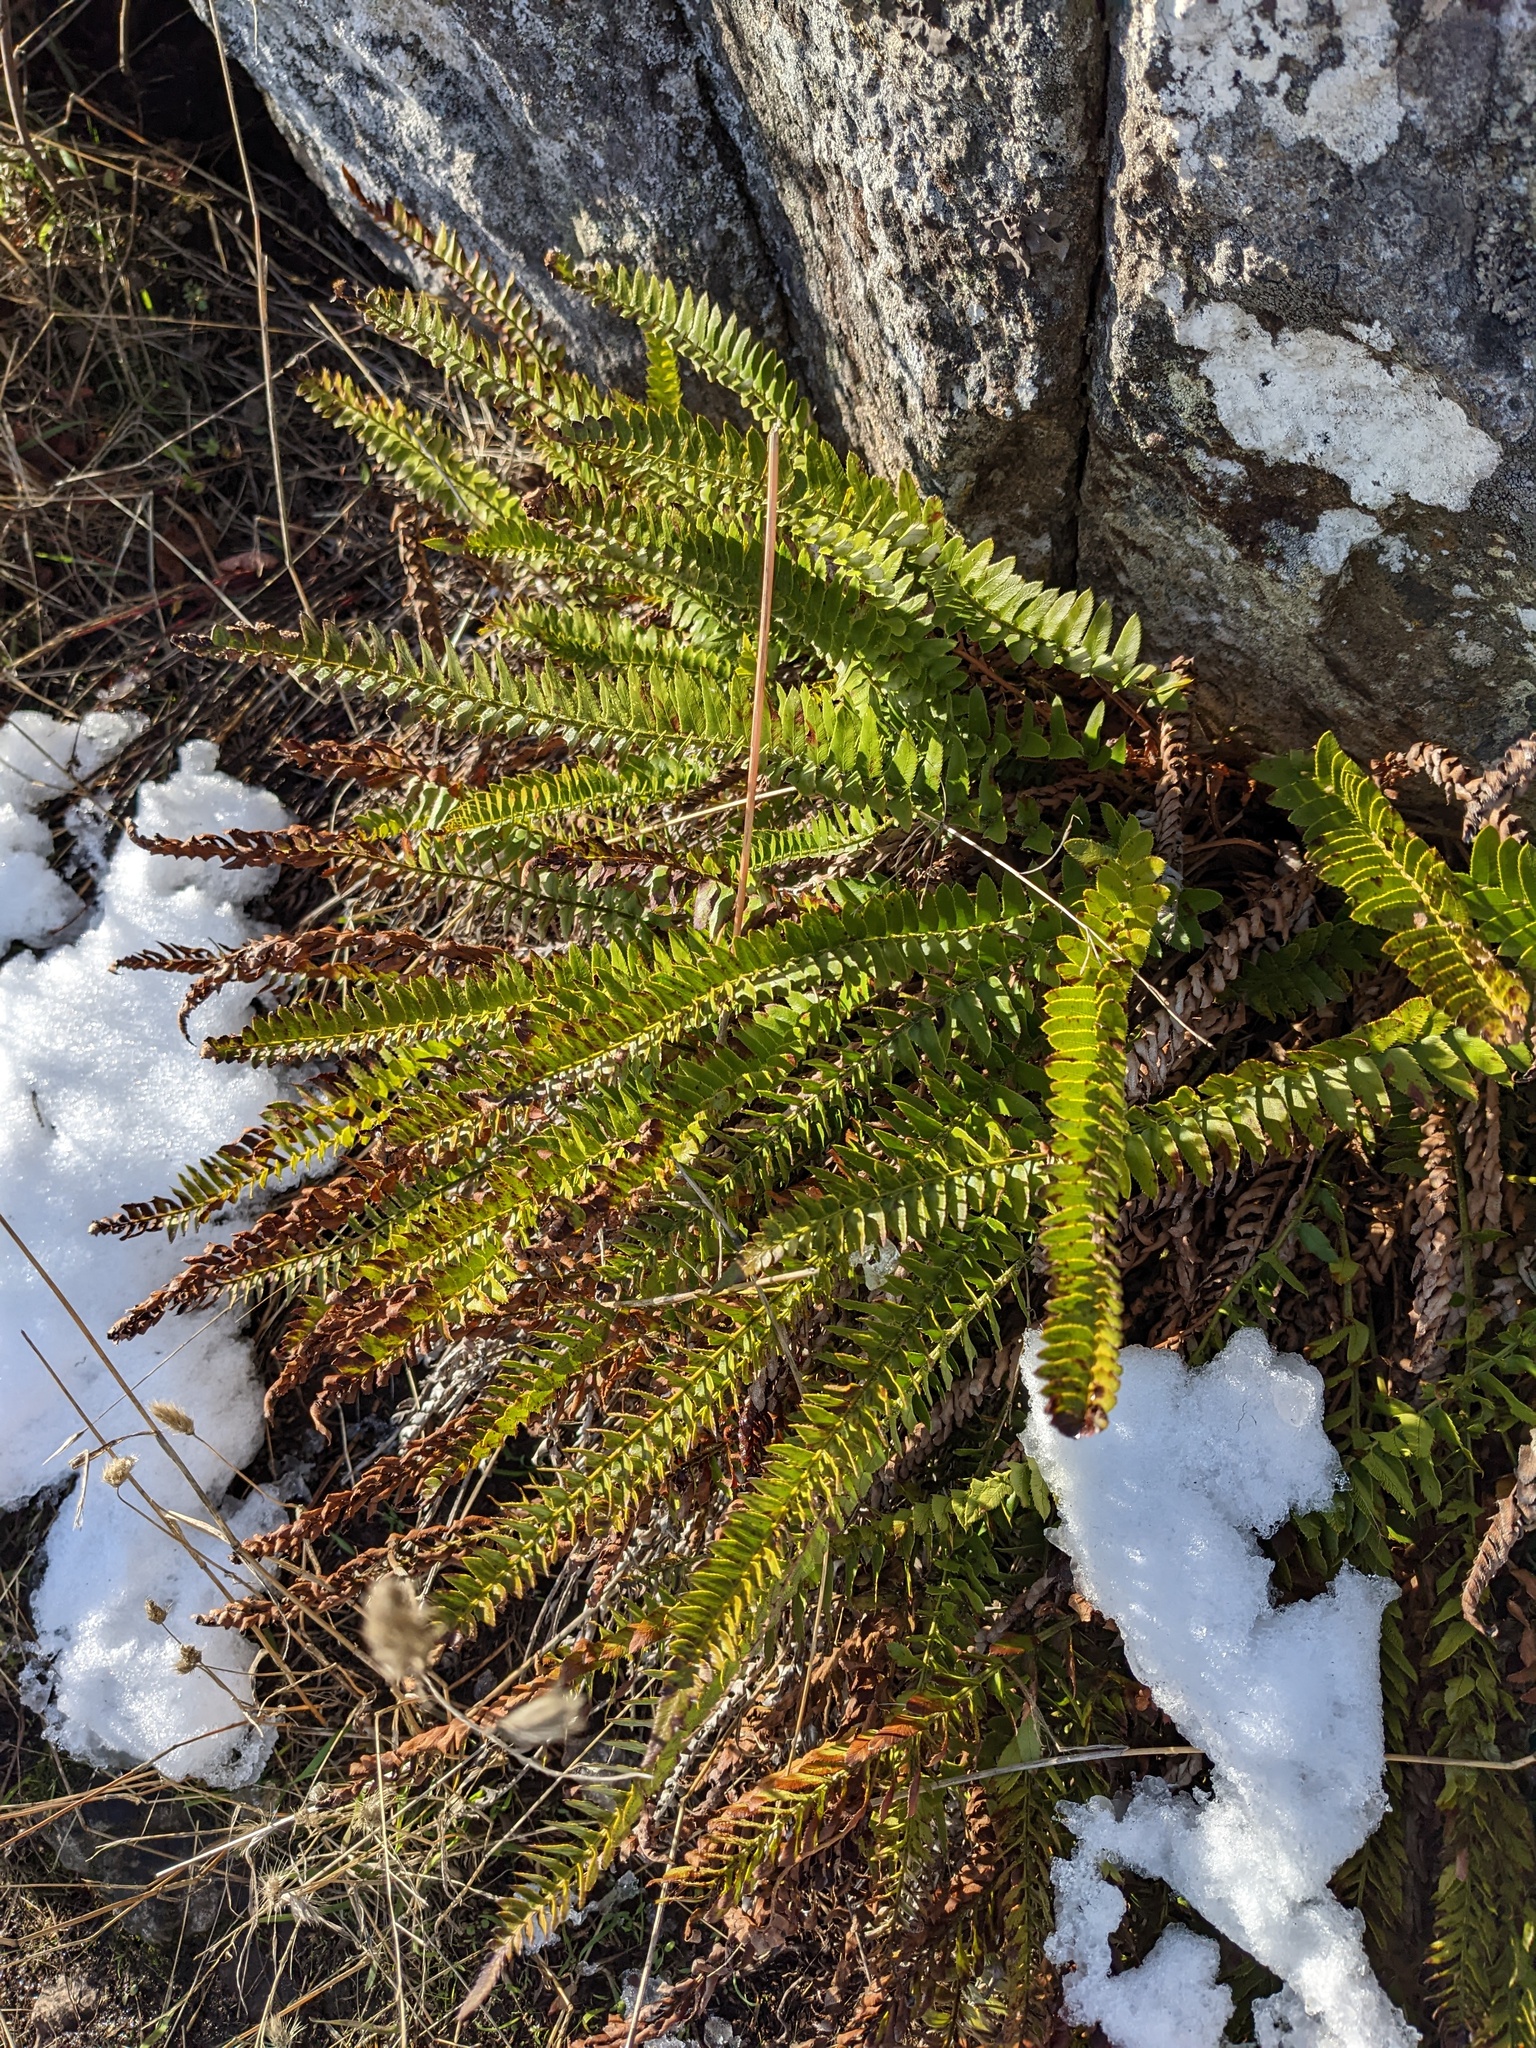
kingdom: Plantae
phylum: Tracheophyta
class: Polypodiopsida
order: Polypodiales
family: Dryopteridaceae
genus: Polystichum
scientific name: Polystichum imbricans
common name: Dwarf western sword fern
